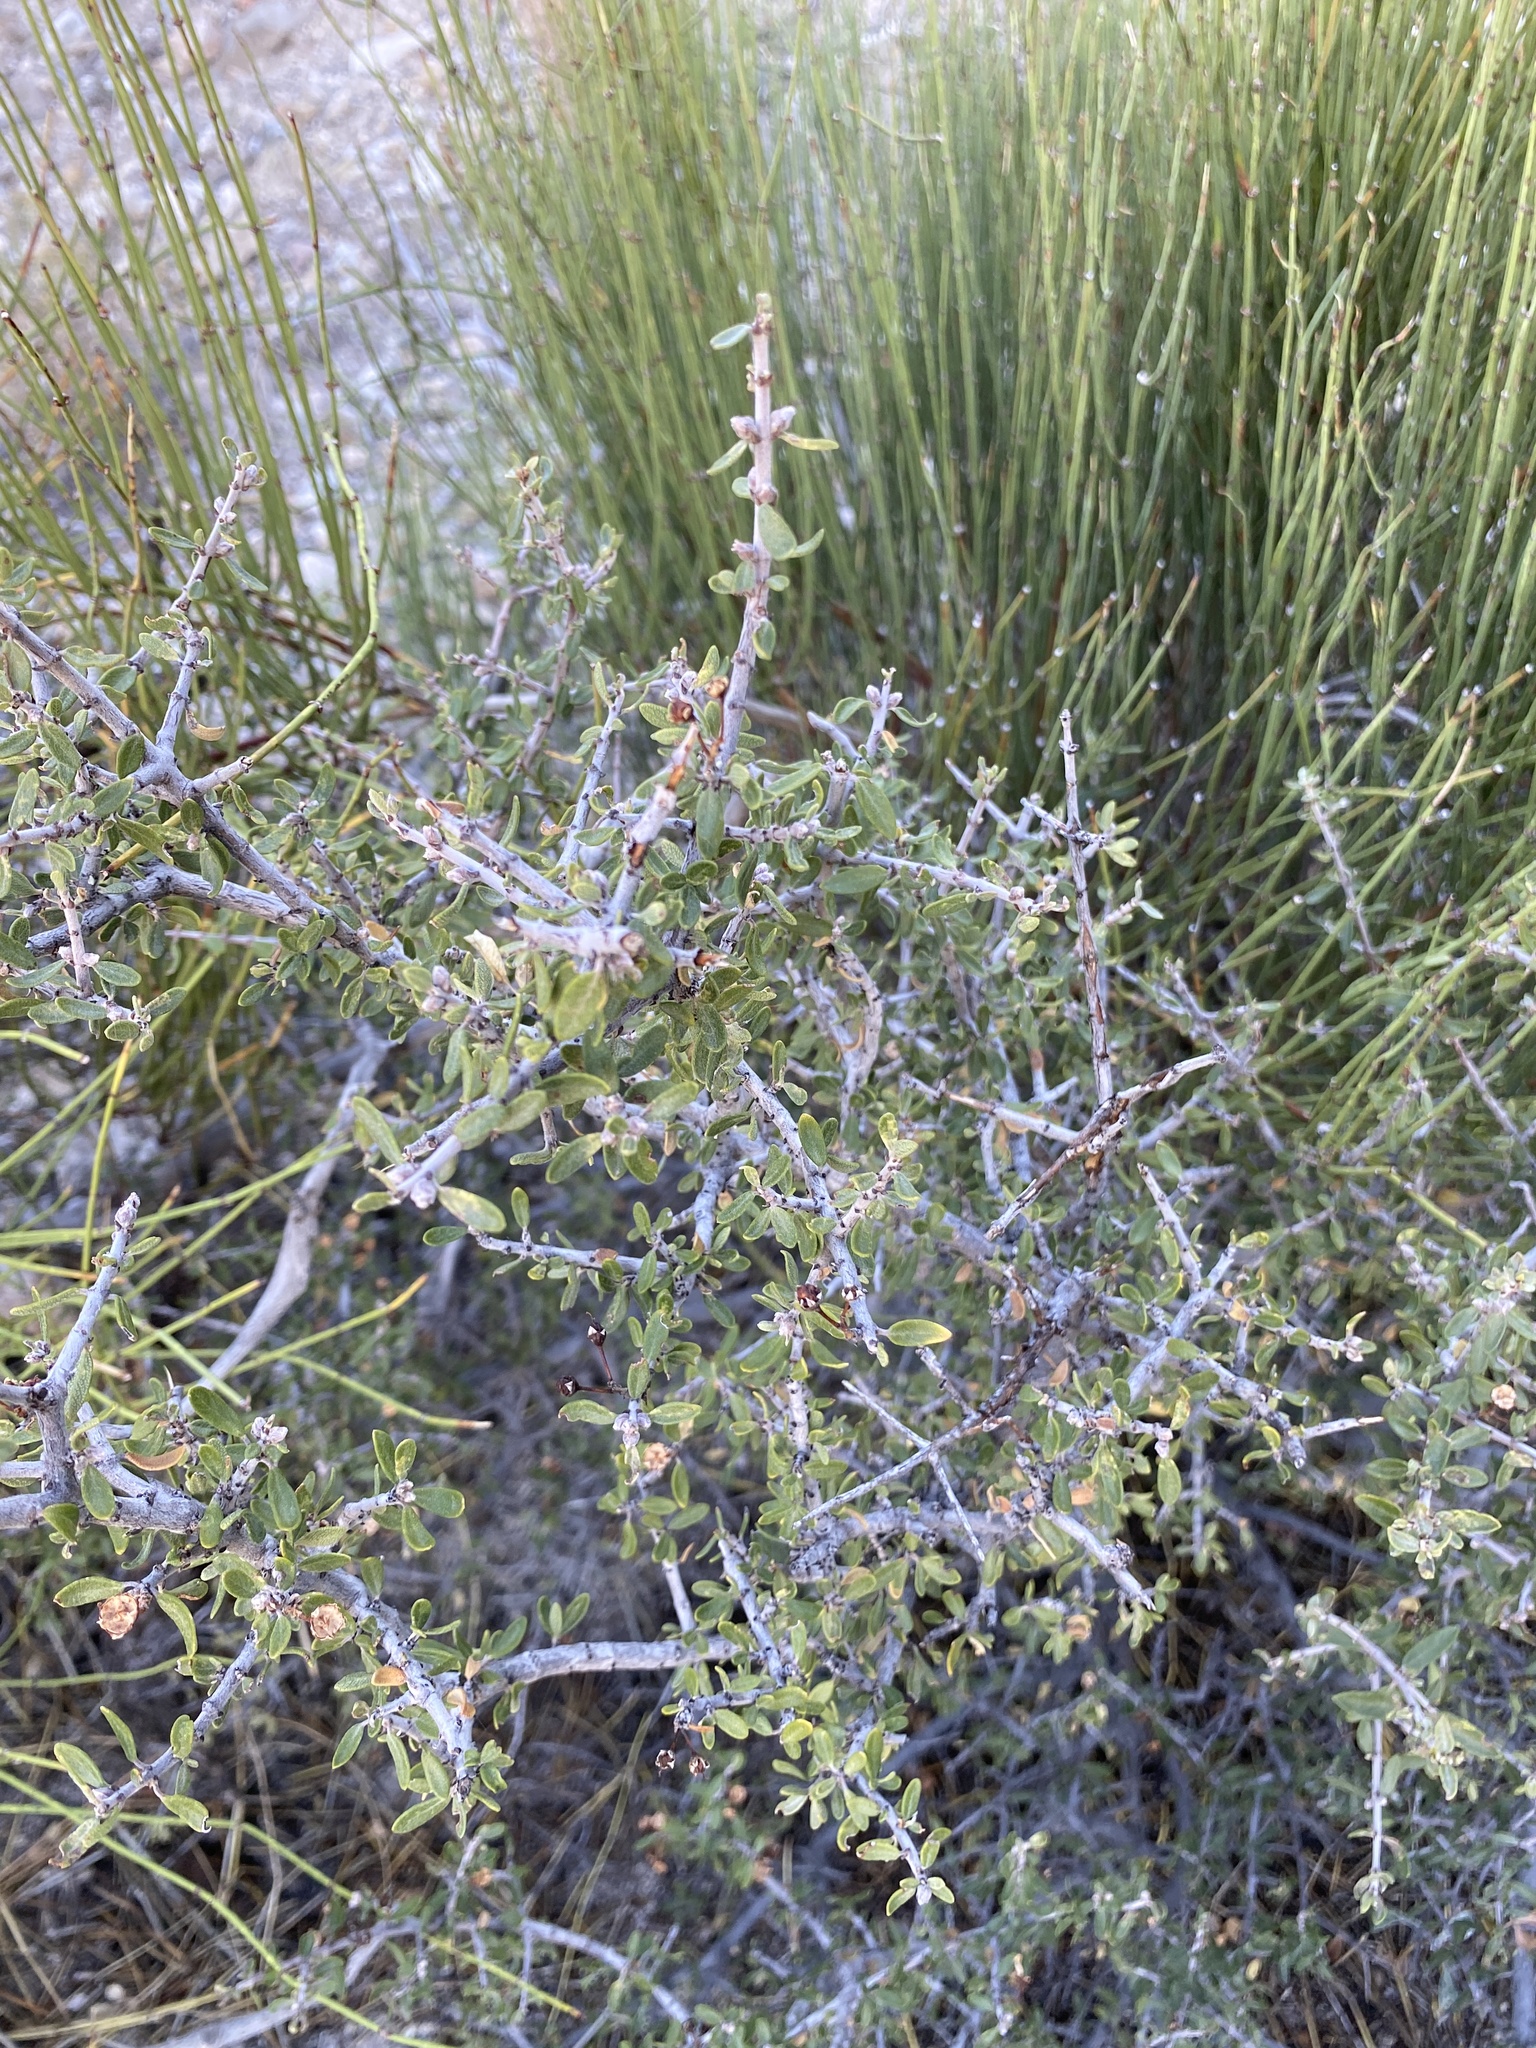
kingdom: Plantae
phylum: Tracheophyta
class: Magnoliopsida
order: Rosales
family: Rhamnaceae
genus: Ceanothus
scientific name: Ceanothus pauciflorus
